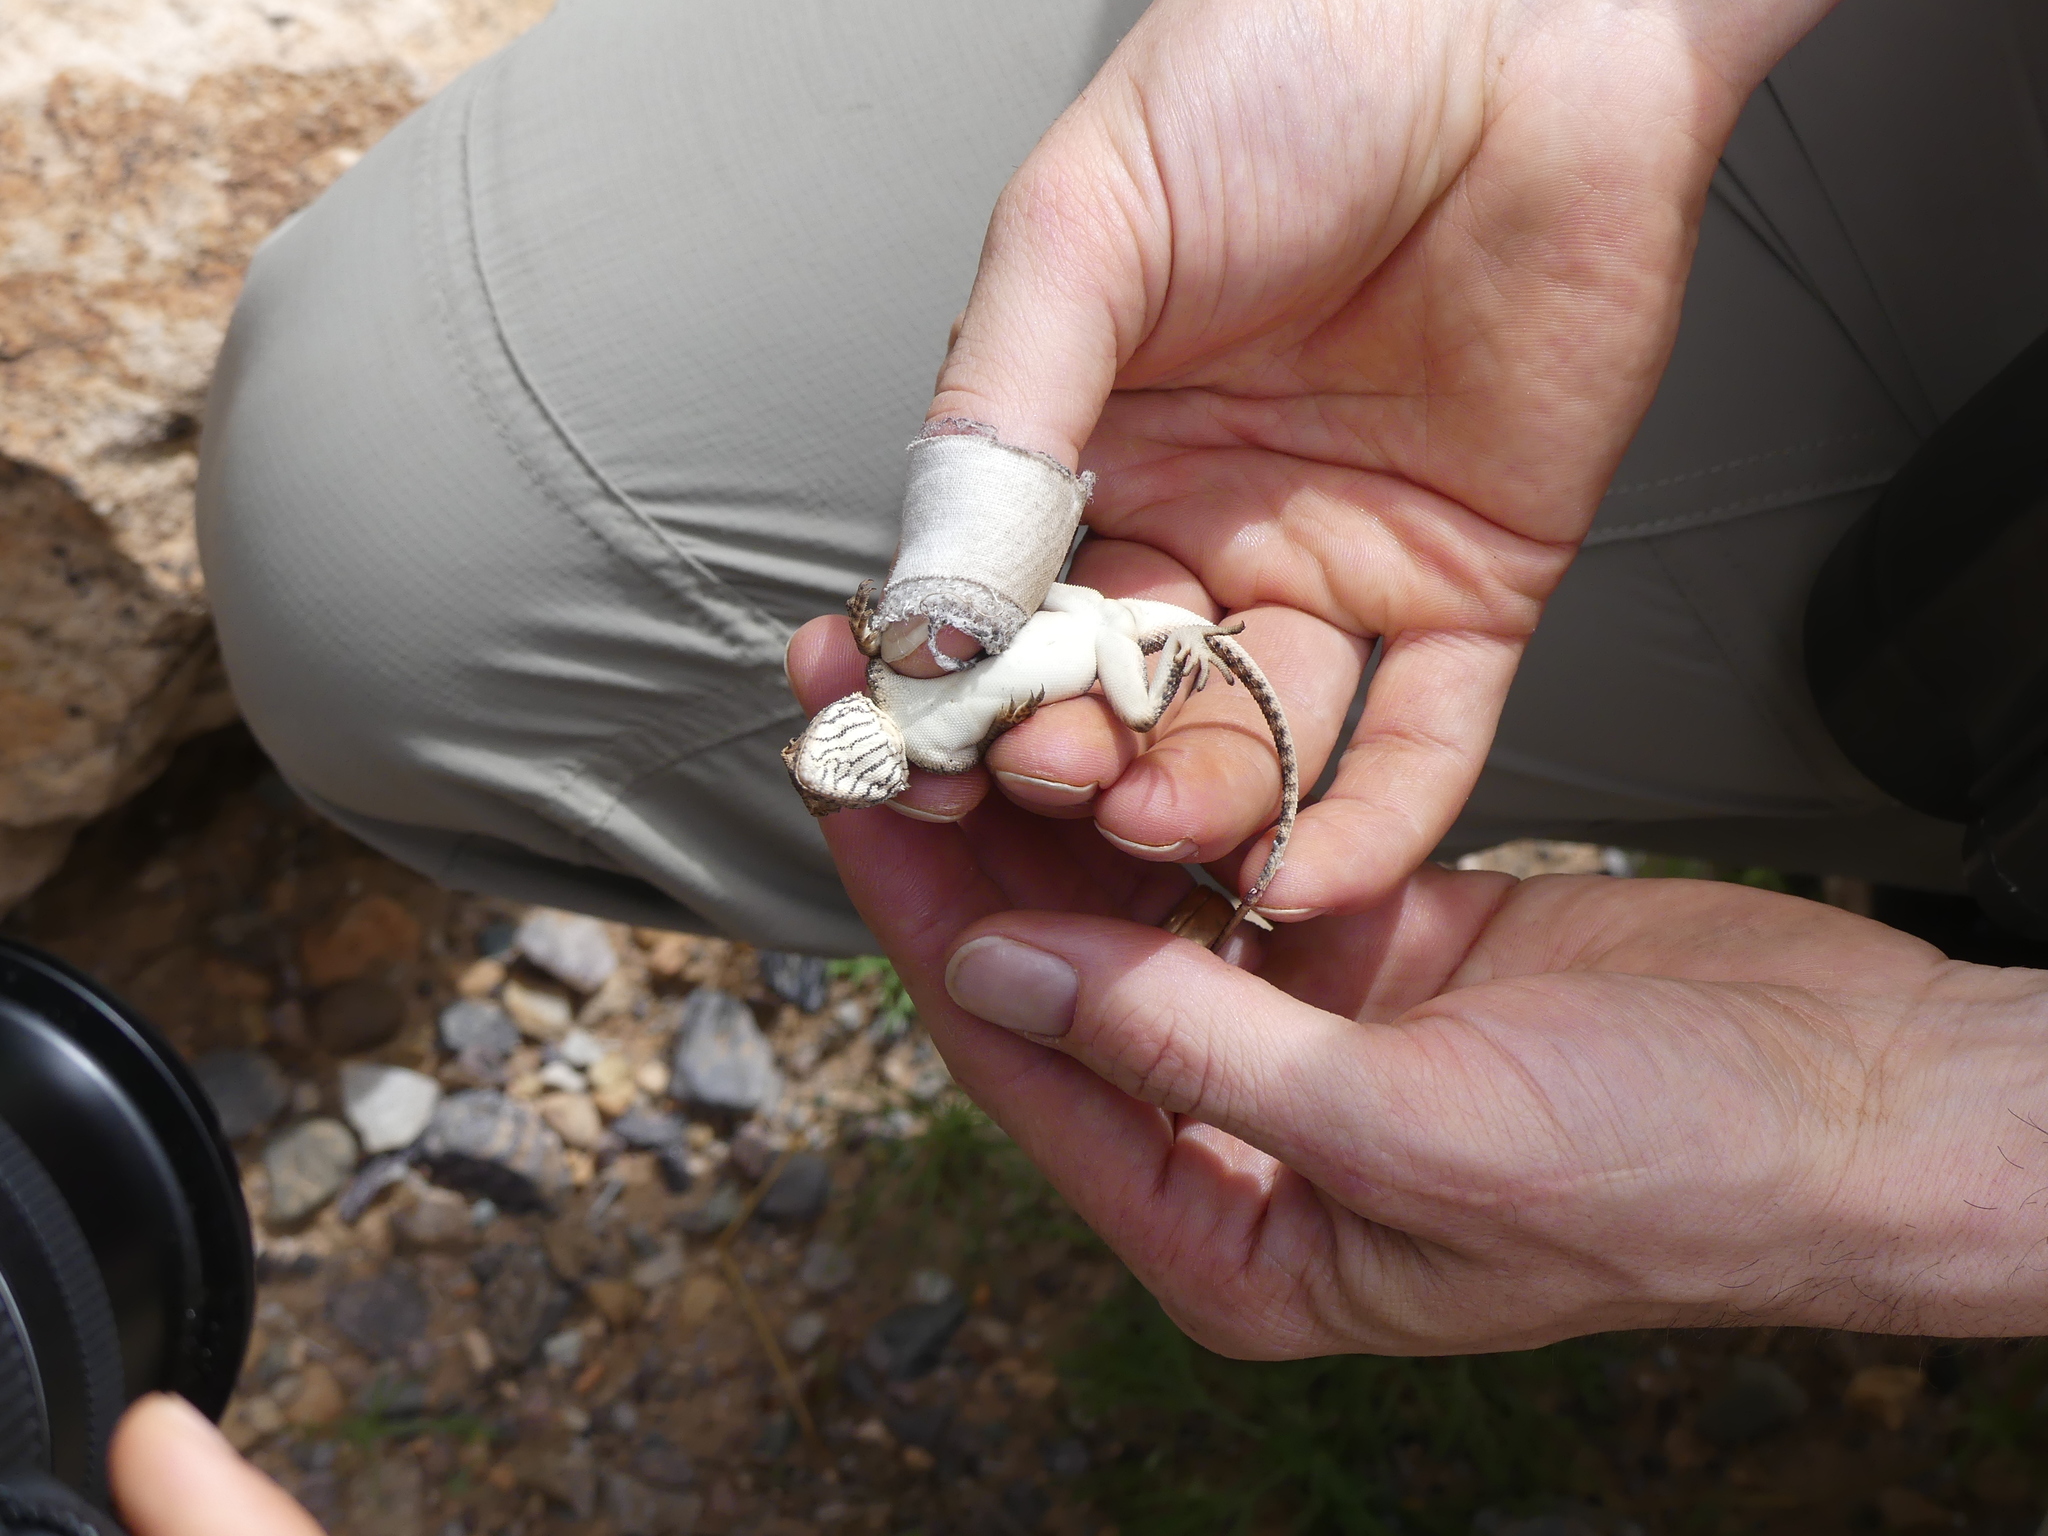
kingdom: Animalia
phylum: Chordata
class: Squamata
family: Agamidae
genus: Agama
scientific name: Agama impalearis
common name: Bibron's agama
